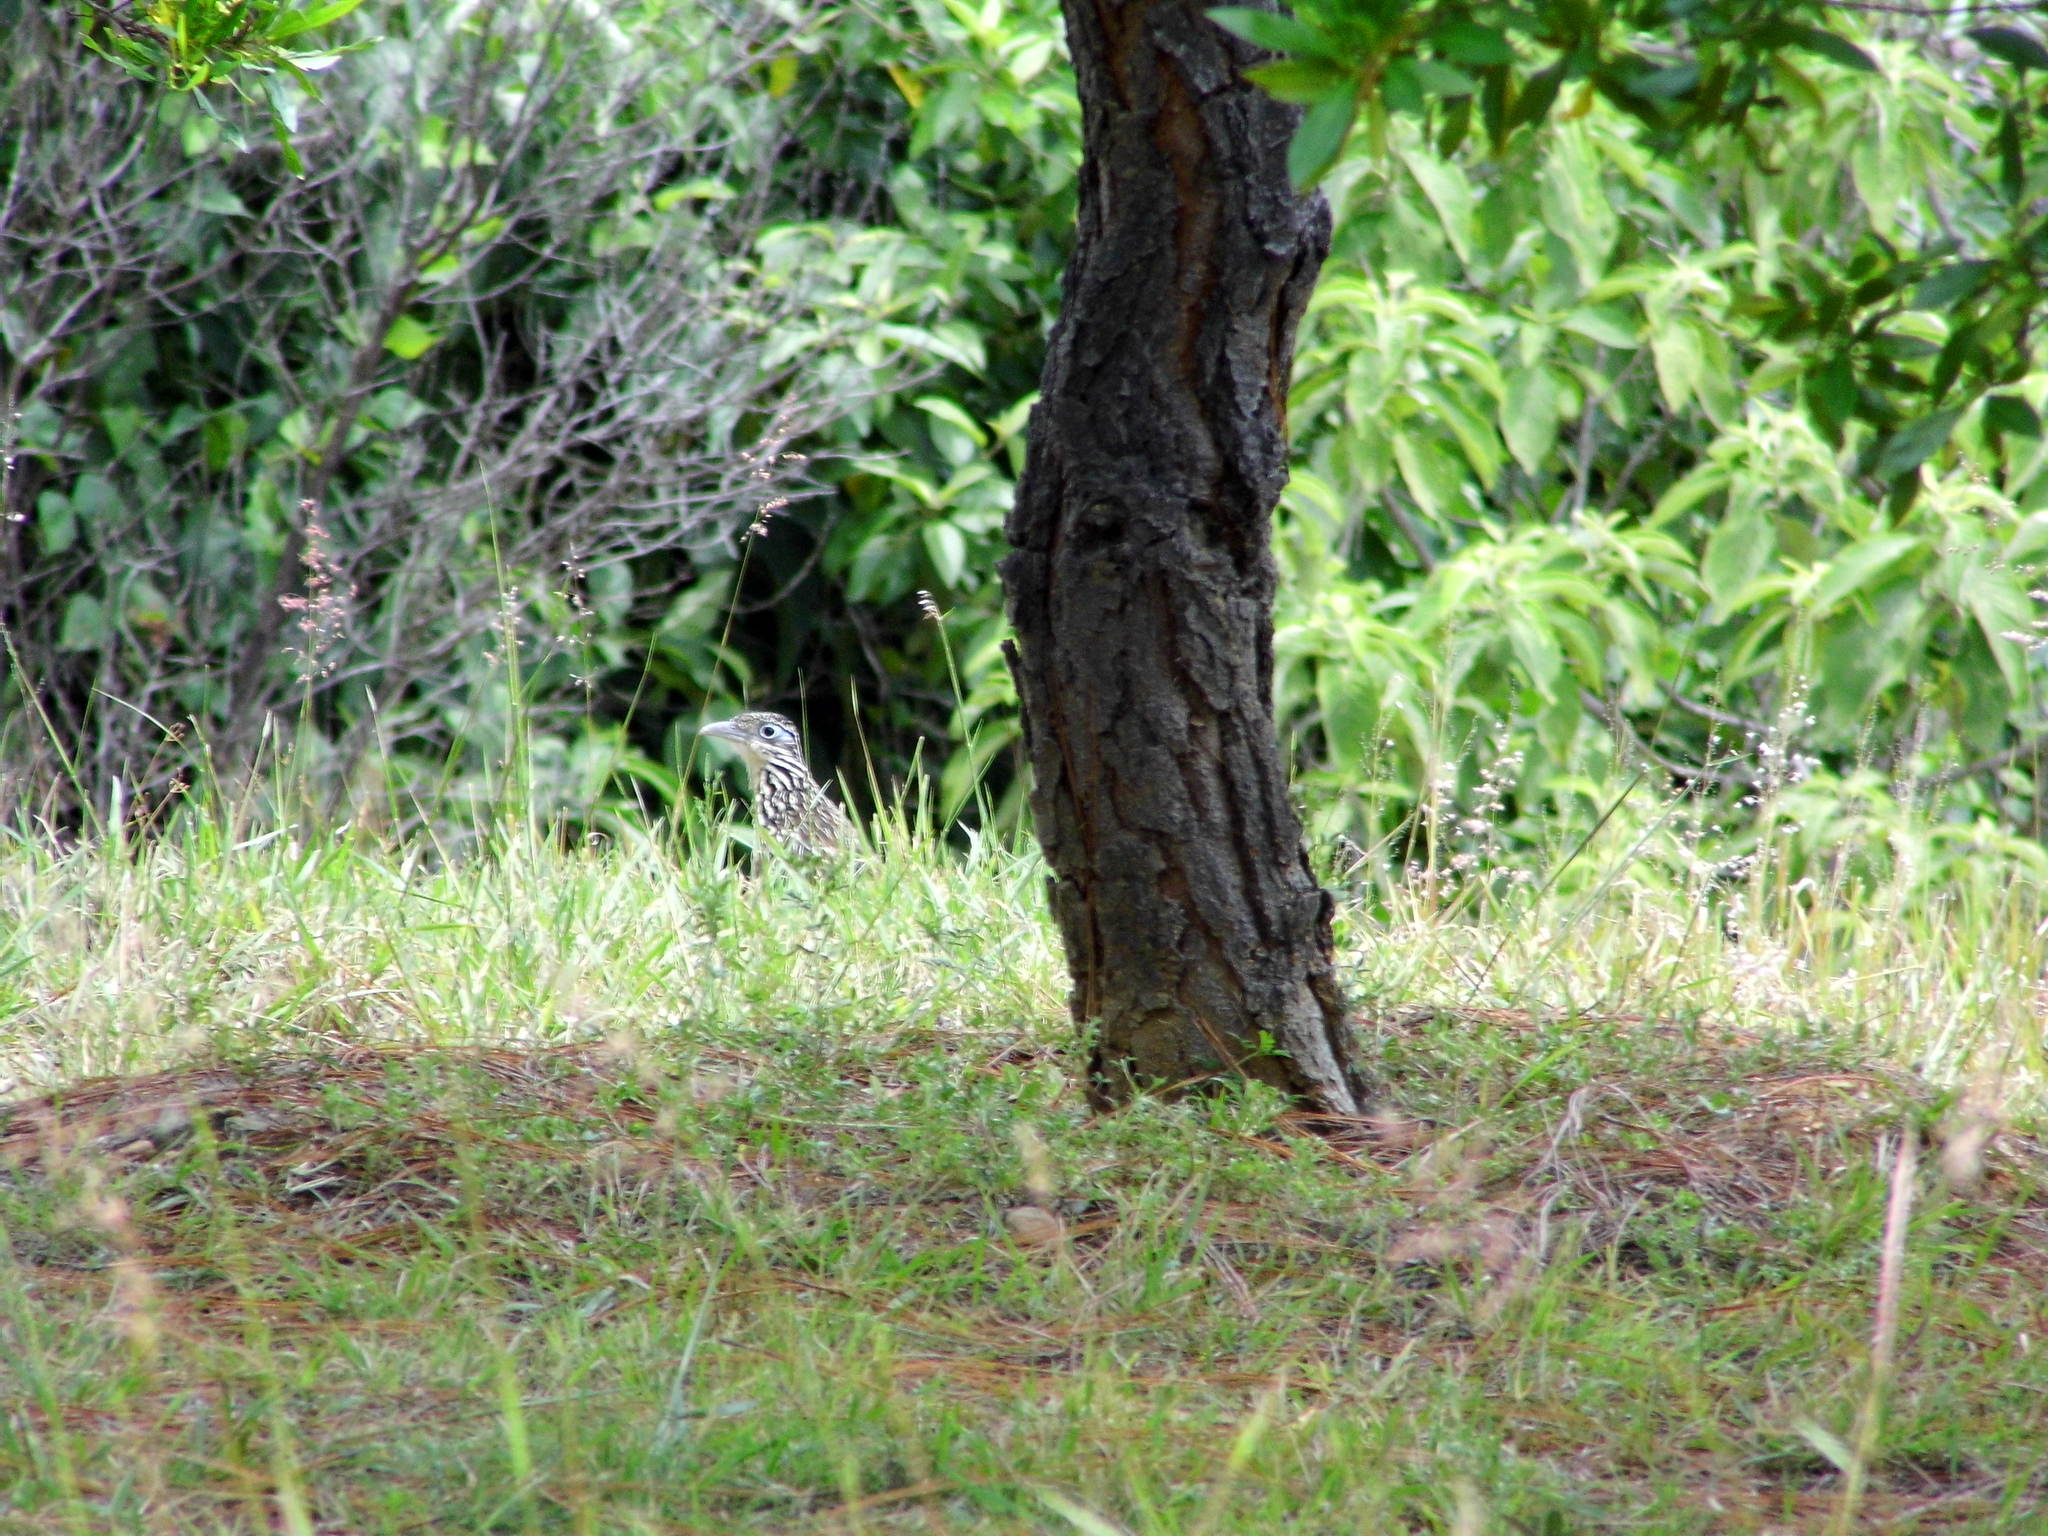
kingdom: Animalia
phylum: Chordata
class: Aves
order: Cuculiformes
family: Cuculidae
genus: Geococcyx
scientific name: Geococcyx velox
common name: Lesser roadrunner
